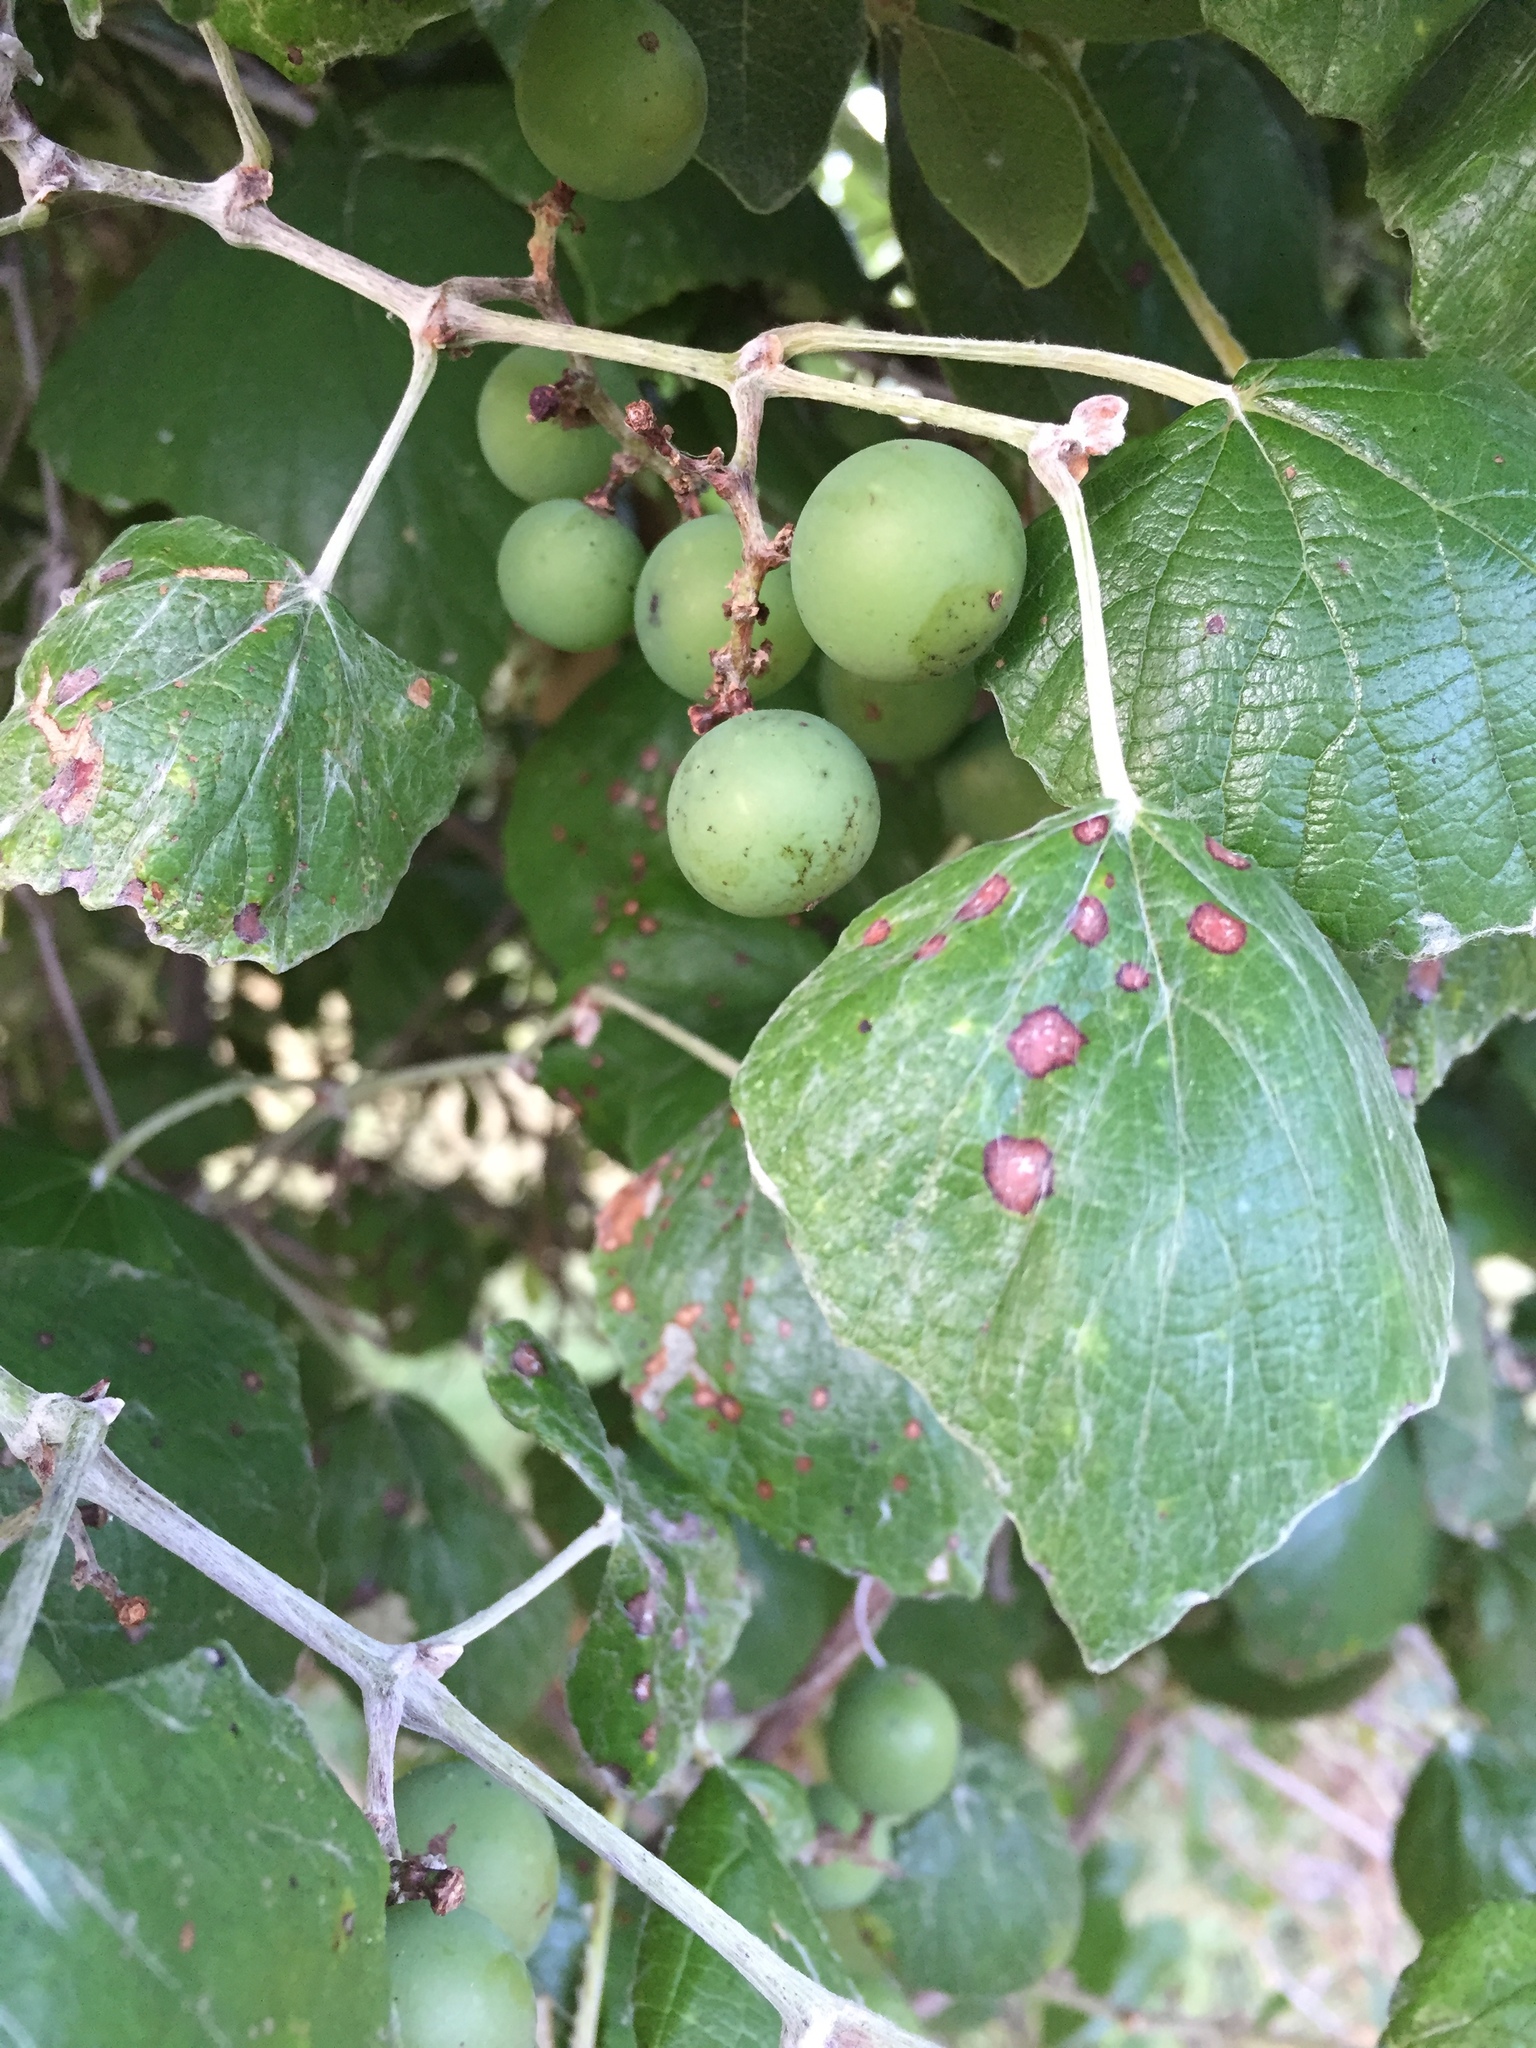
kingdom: Plantae
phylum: Tracheophyta
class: Magnoliopsida
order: Vitales
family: Vitaceae
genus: Vitis
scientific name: Vitis mustangensis
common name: Mustang grape
